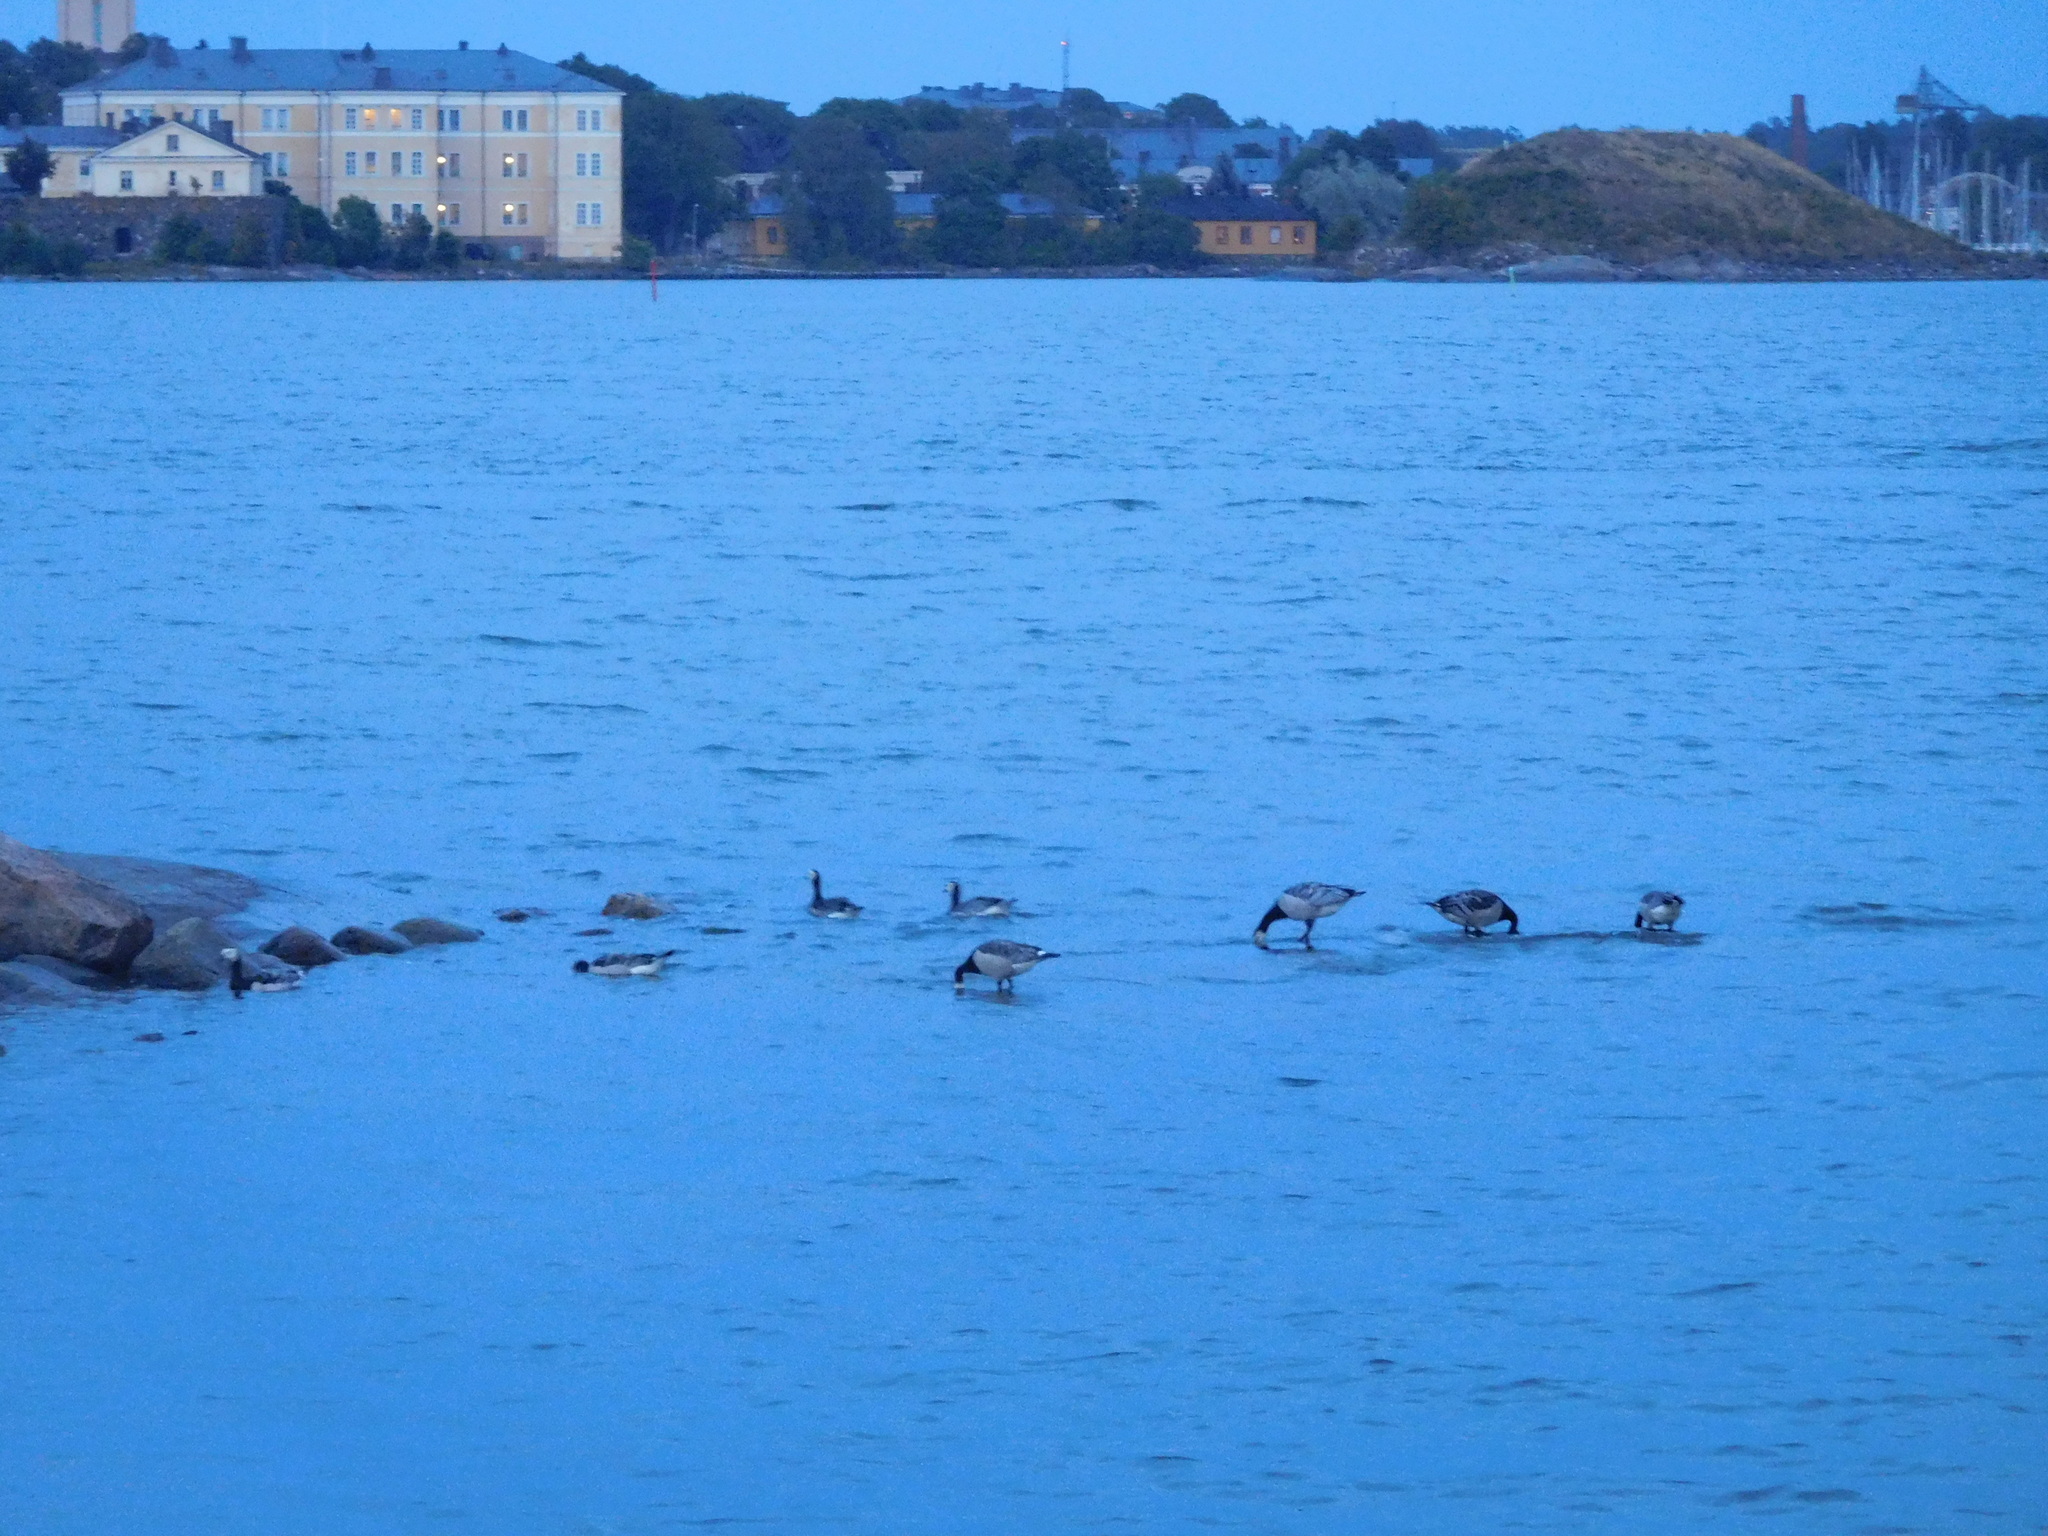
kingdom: Animalia
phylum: Chordata
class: Aves
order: Anseriformes
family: Anatidae
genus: Branta
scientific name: Branta leucopsis
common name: Barnacle goose
